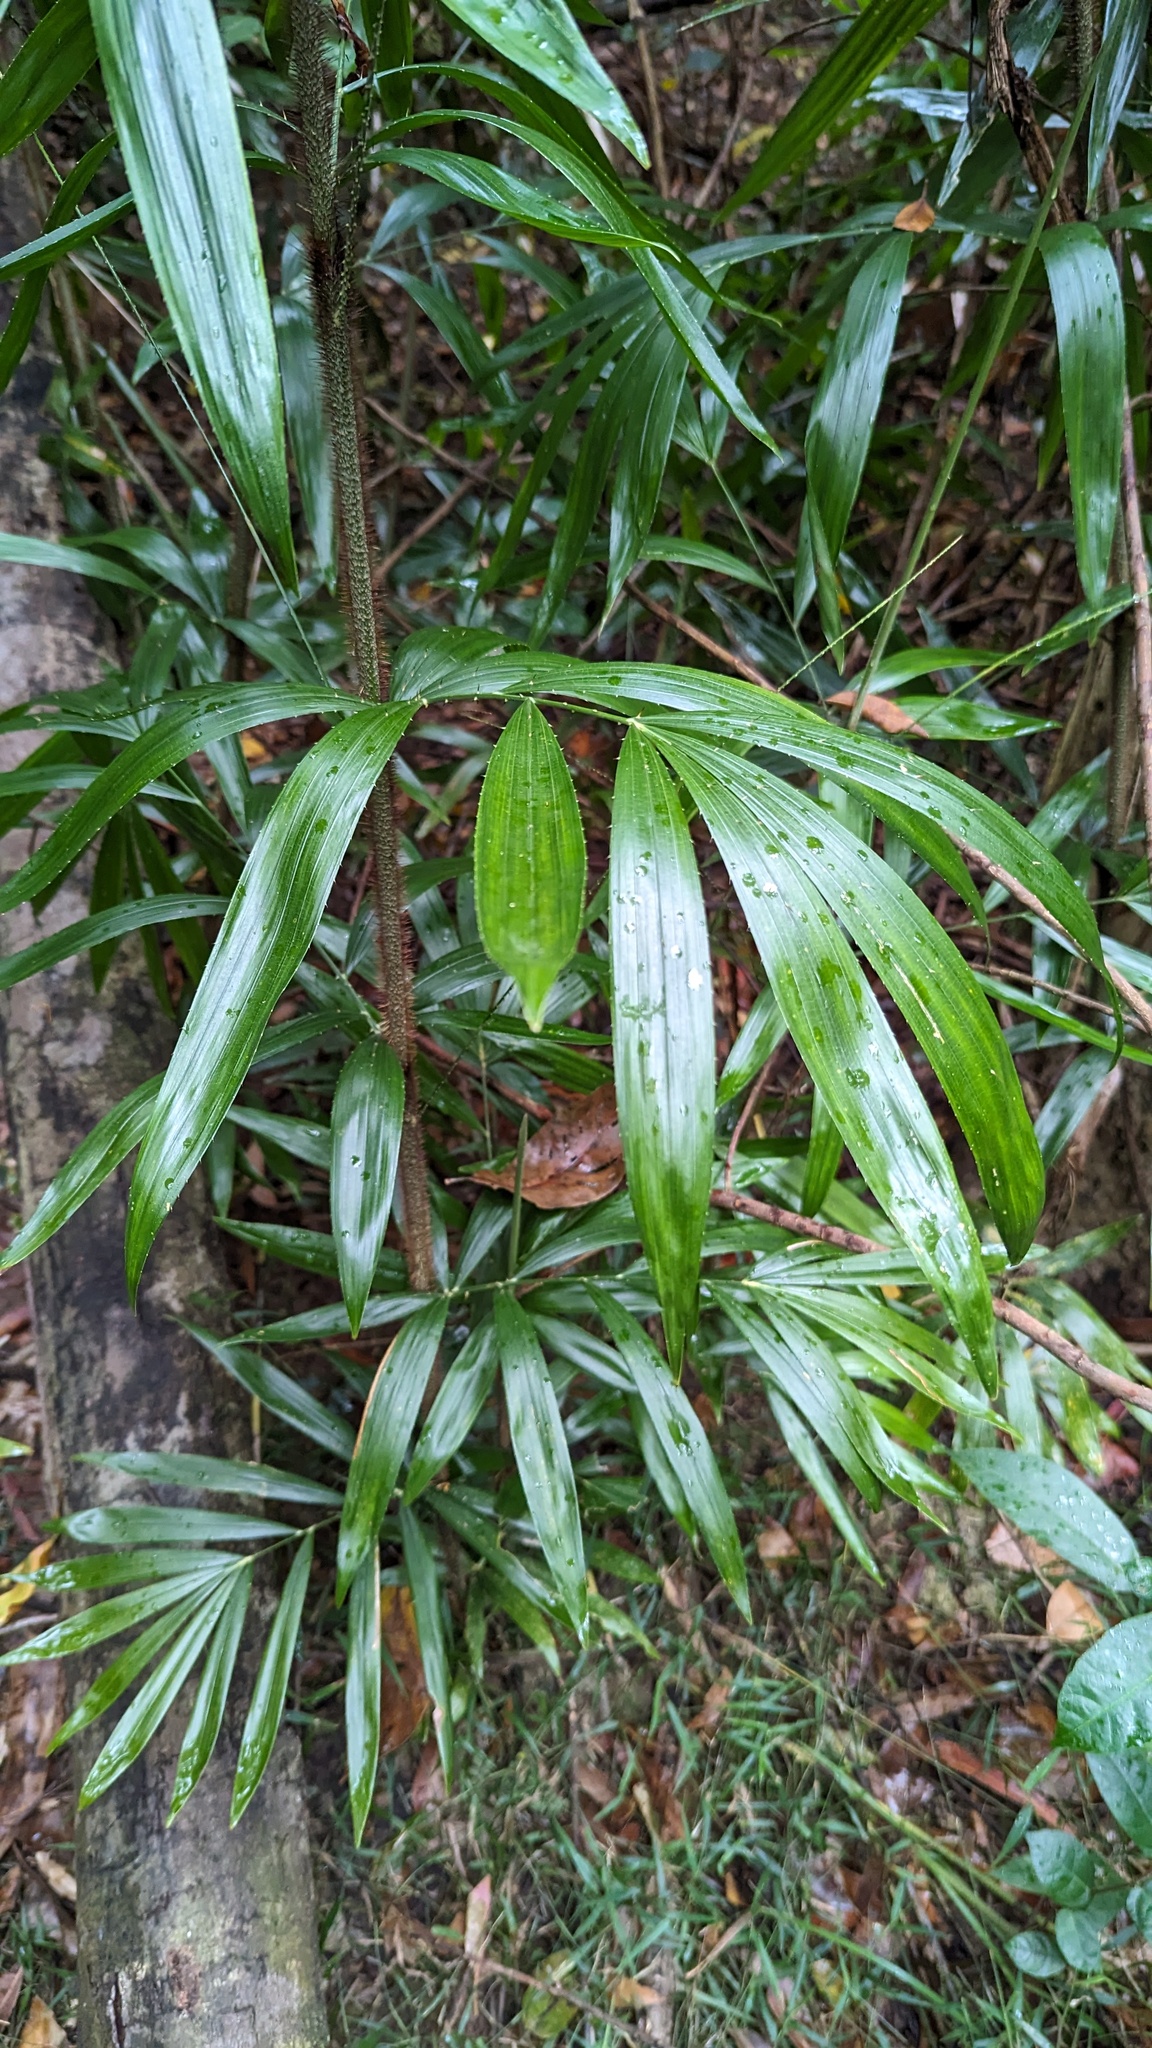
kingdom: Plantae
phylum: Tracheophyta
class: Liliopsida
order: Arecales
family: Arecaceae
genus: Calamus
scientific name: Calamus muelleri
